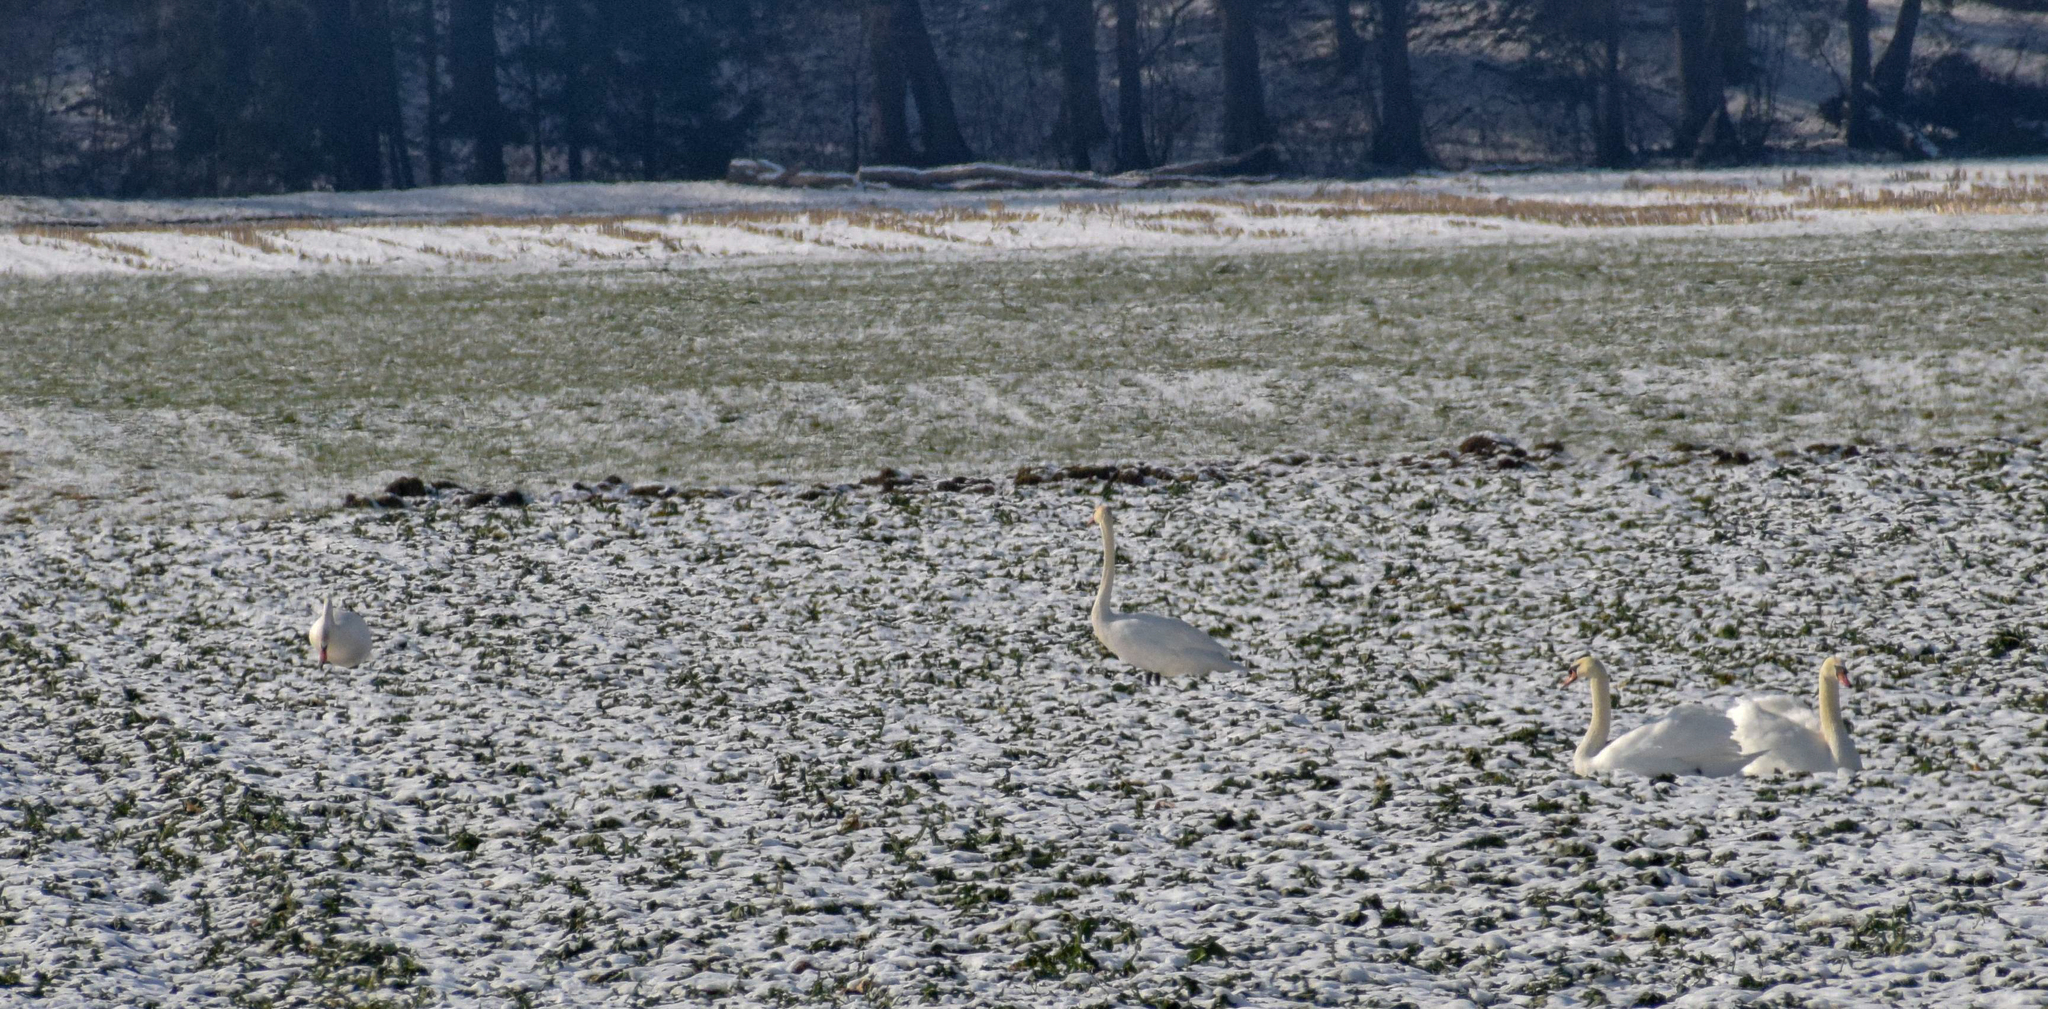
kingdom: Animalia
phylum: Chordata
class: Aves
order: Anseriformes
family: Anatidae
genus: Cygnus
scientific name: Cygnus olor
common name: Mute swan
